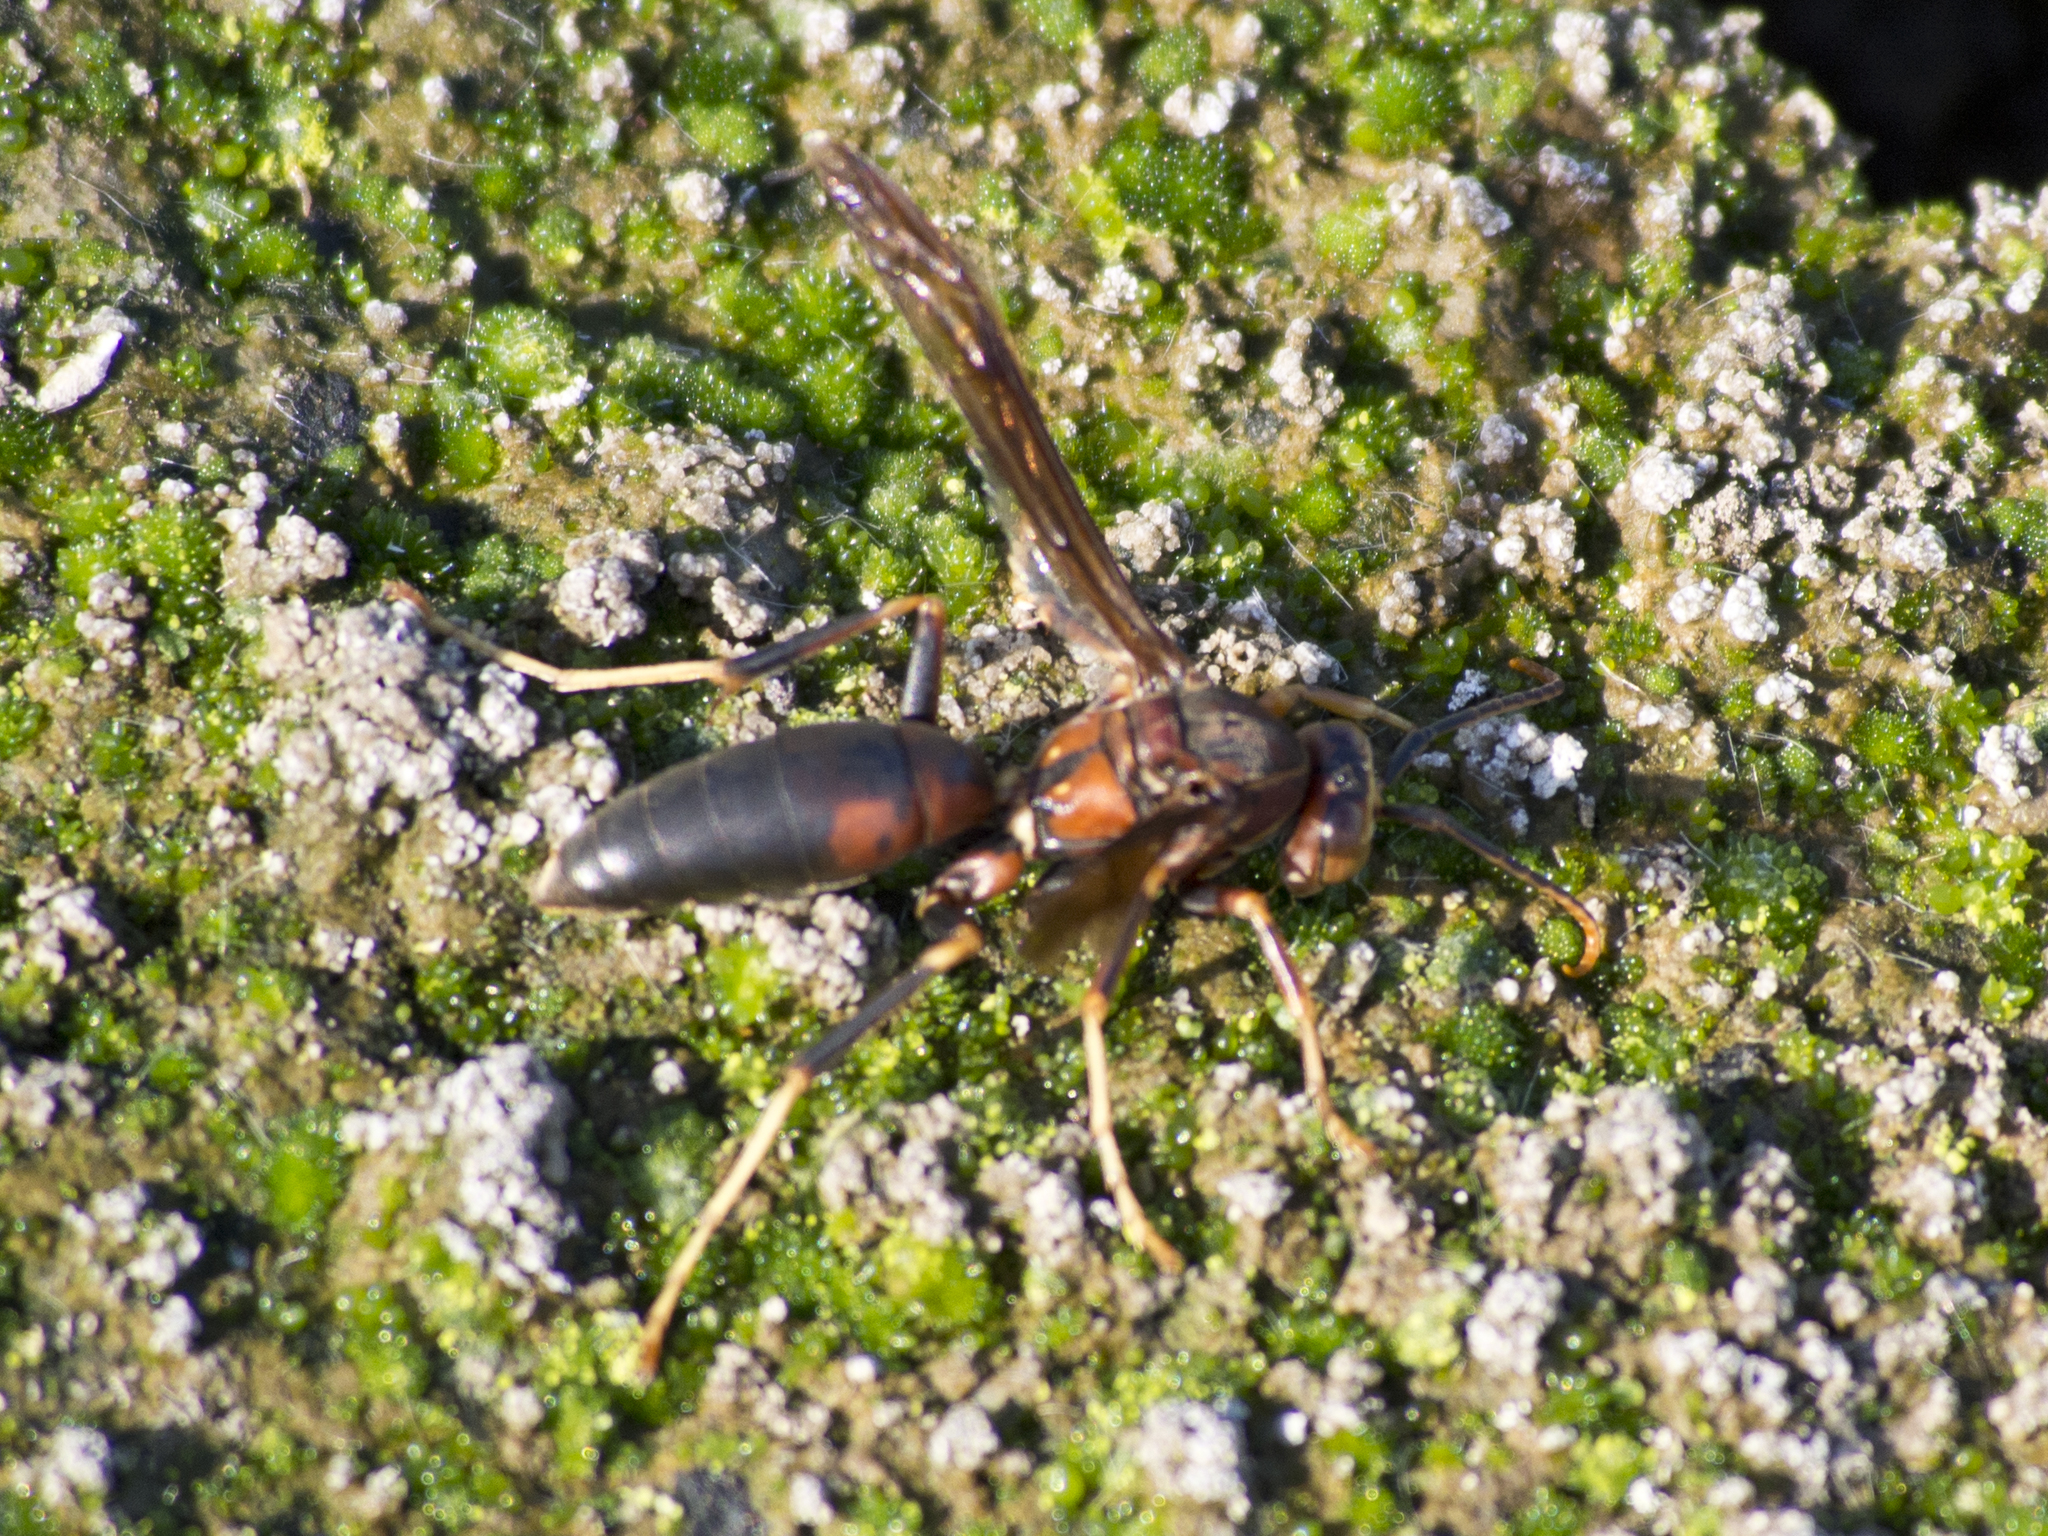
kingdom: Animalia
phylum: Arthropoda
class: Insecta
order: Hymenoptera
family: Eumenidae
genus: Polistes
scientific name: Polistes metricus
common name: Metric paper wasp
